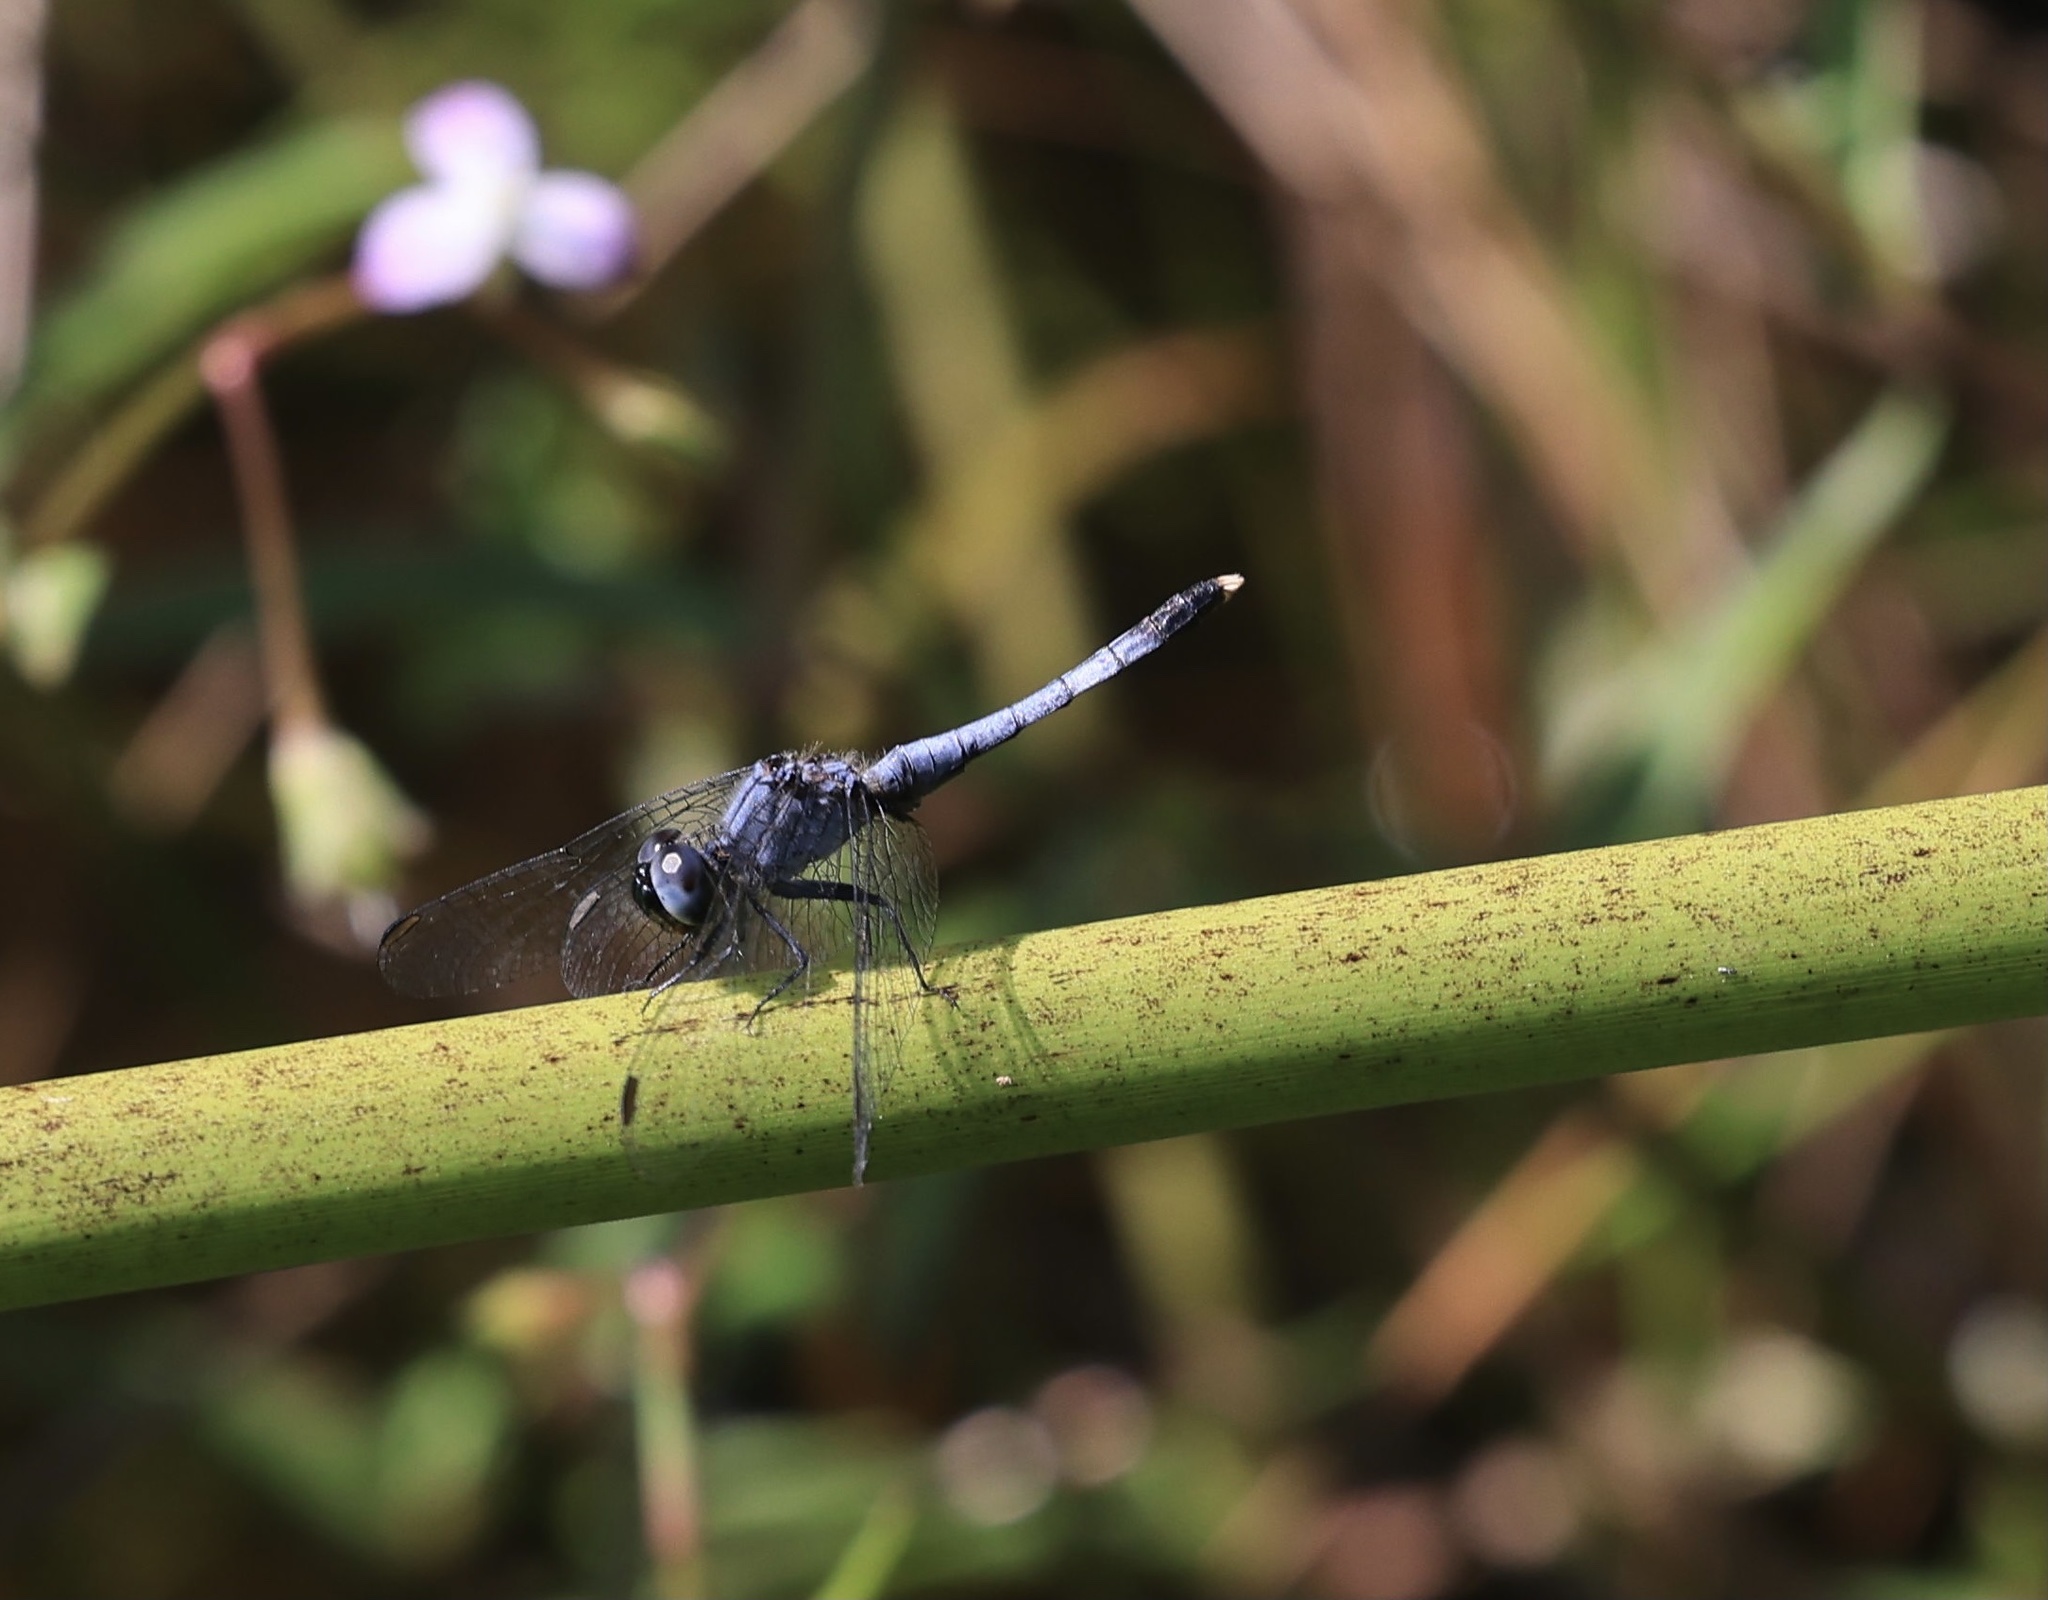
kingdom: Animalia
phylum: Arthropoda
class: Insecta
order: Odonata
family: Libellulidae
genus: Erythrodiplax
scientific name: Erythrodiplax minuscula
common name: Little blue dragonlet
